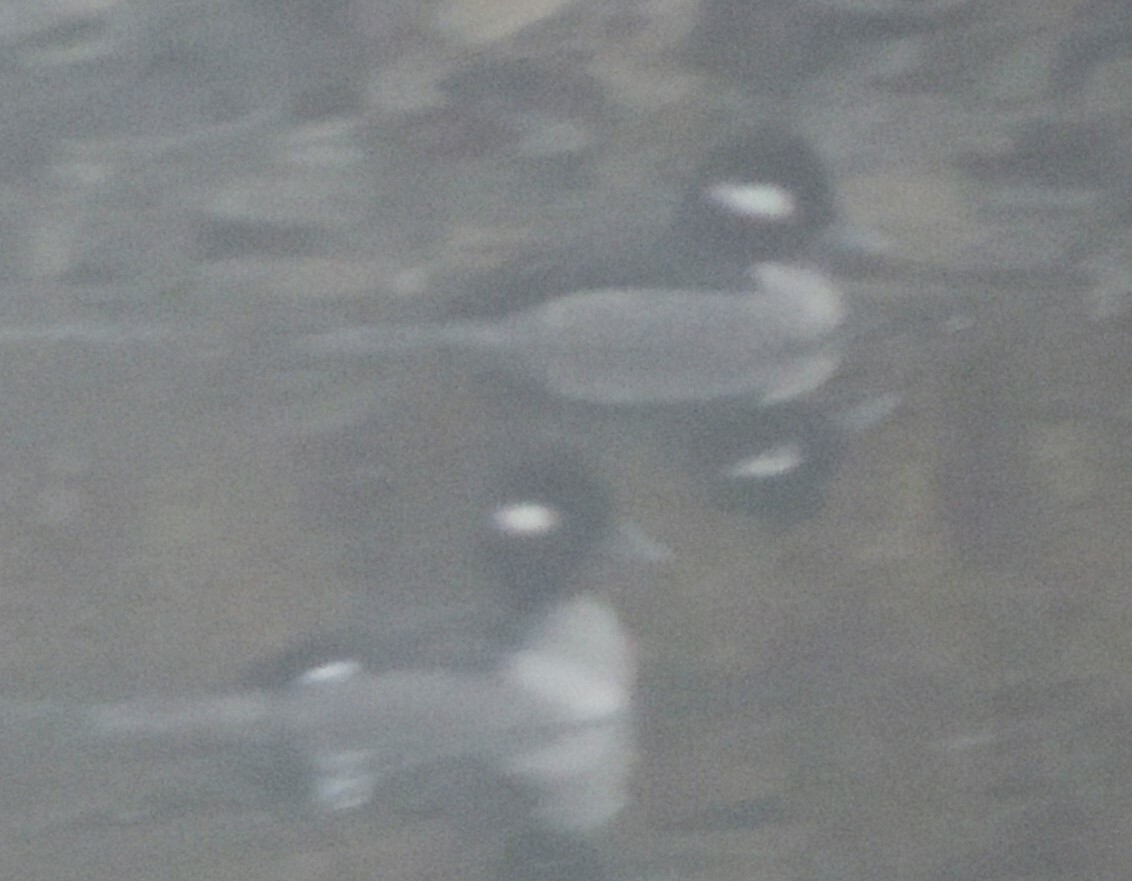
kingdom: Animalia
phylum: Chordata
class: Aves
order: Anseriformes
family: Anatidae
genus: Bucephala
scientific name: Bucephala albeola
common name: Bufflehead
